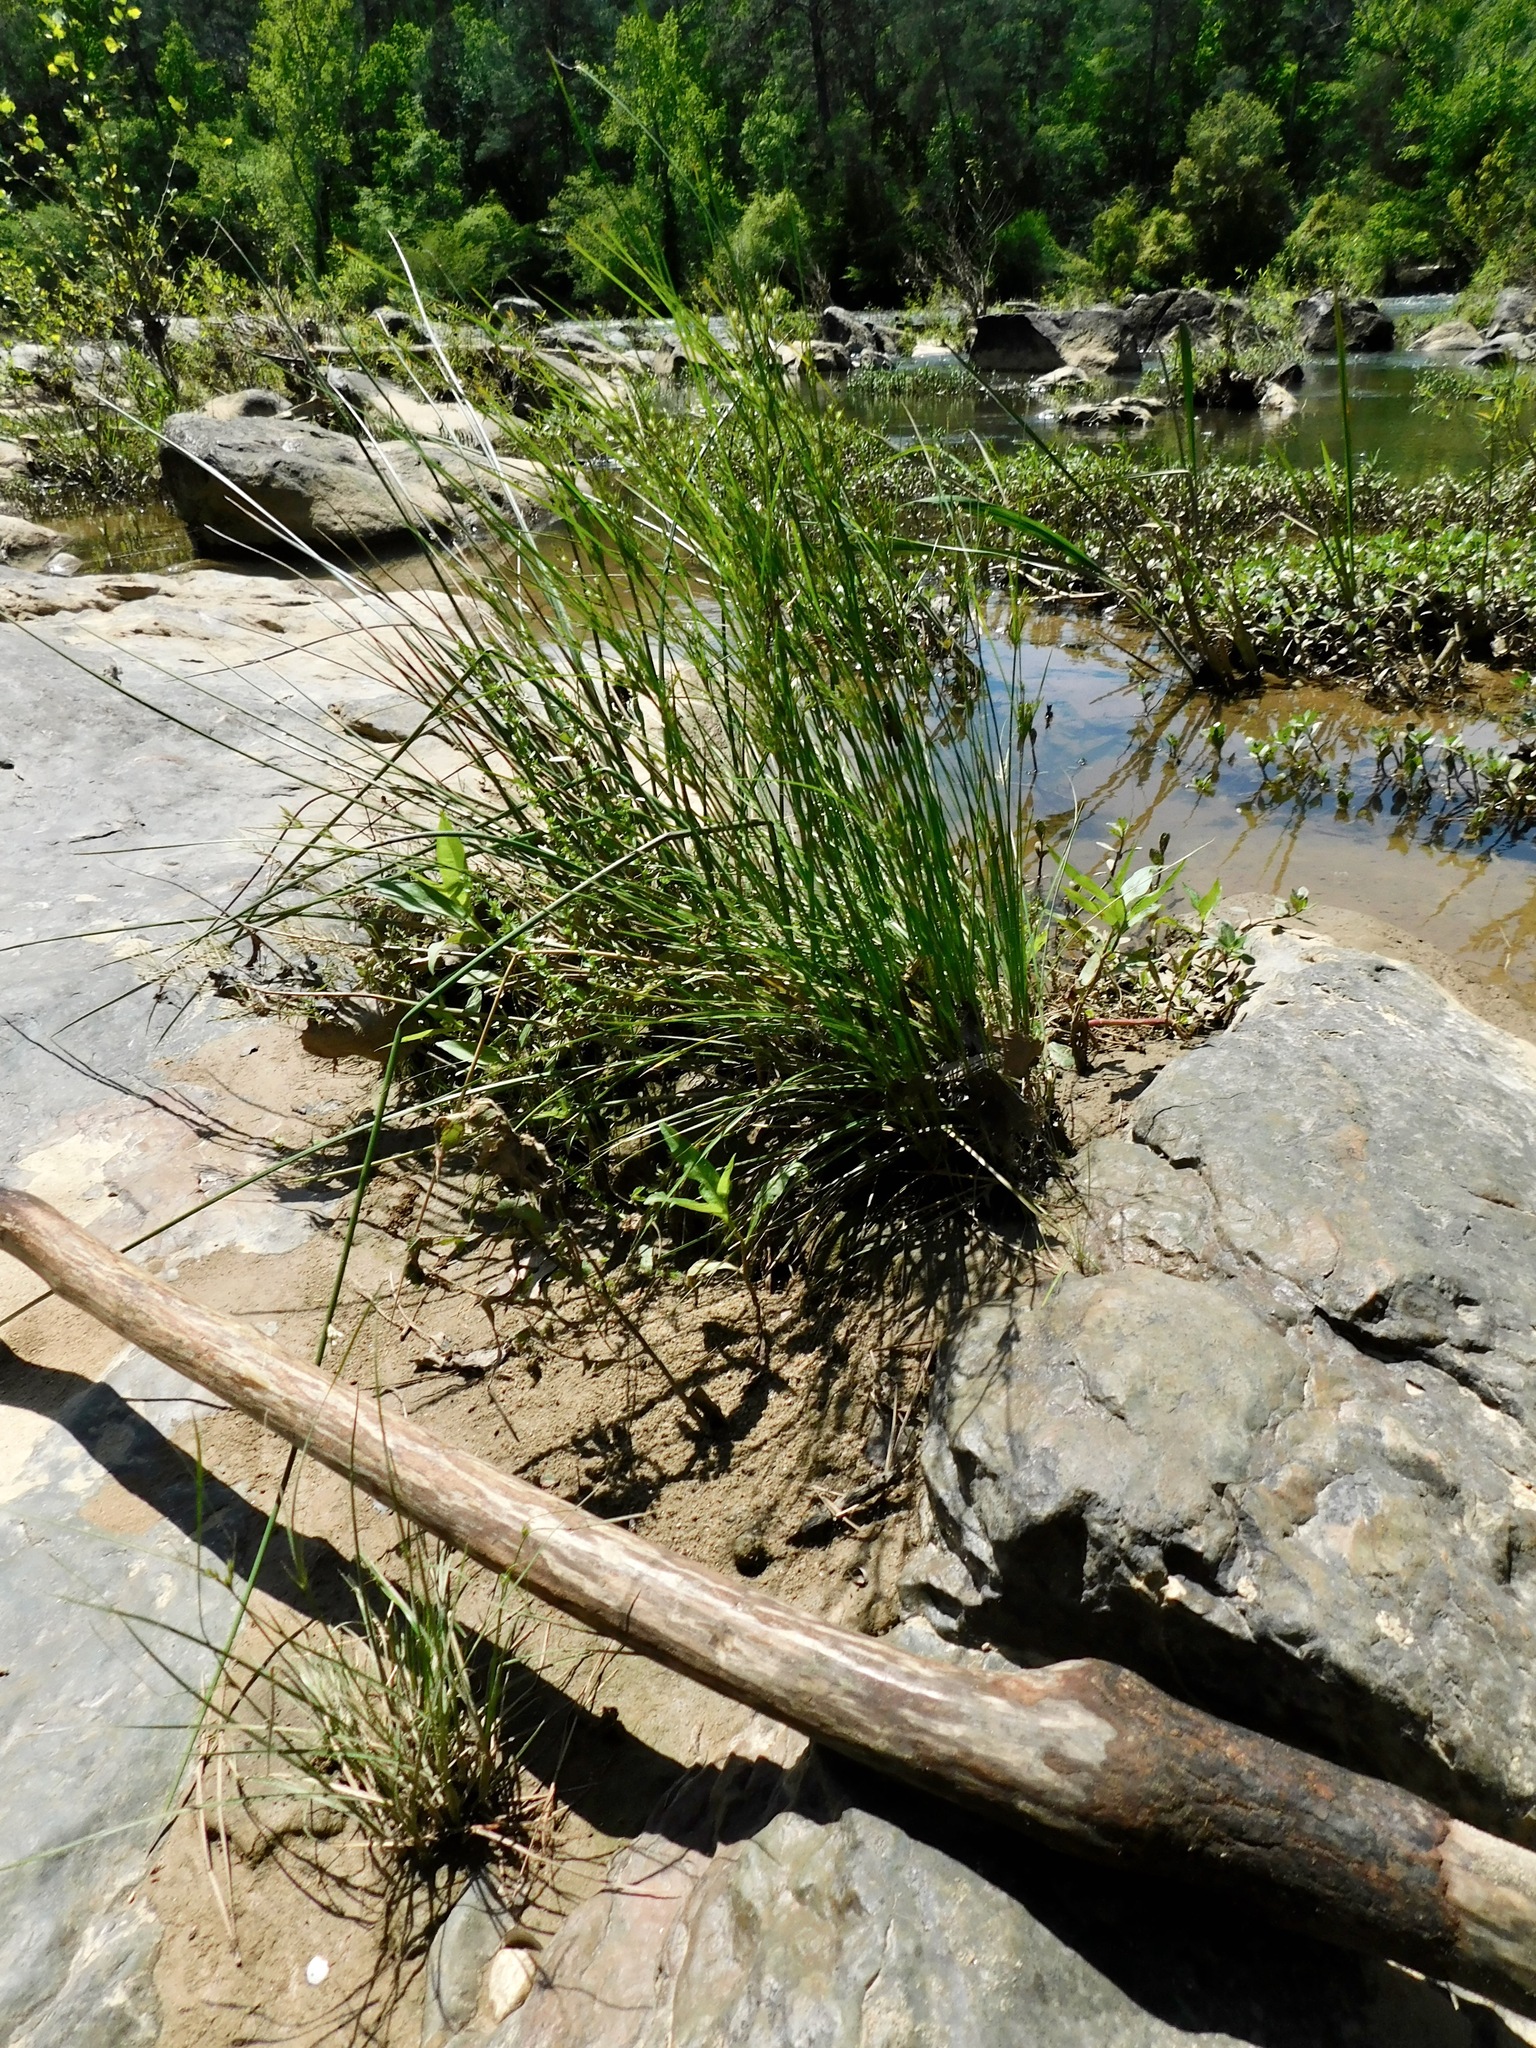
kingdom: Plantae
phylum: Tracheophyta
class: Liliopsida
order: Poales
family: Juncaceae
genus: Juncus
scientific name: Juncus coriaceus
